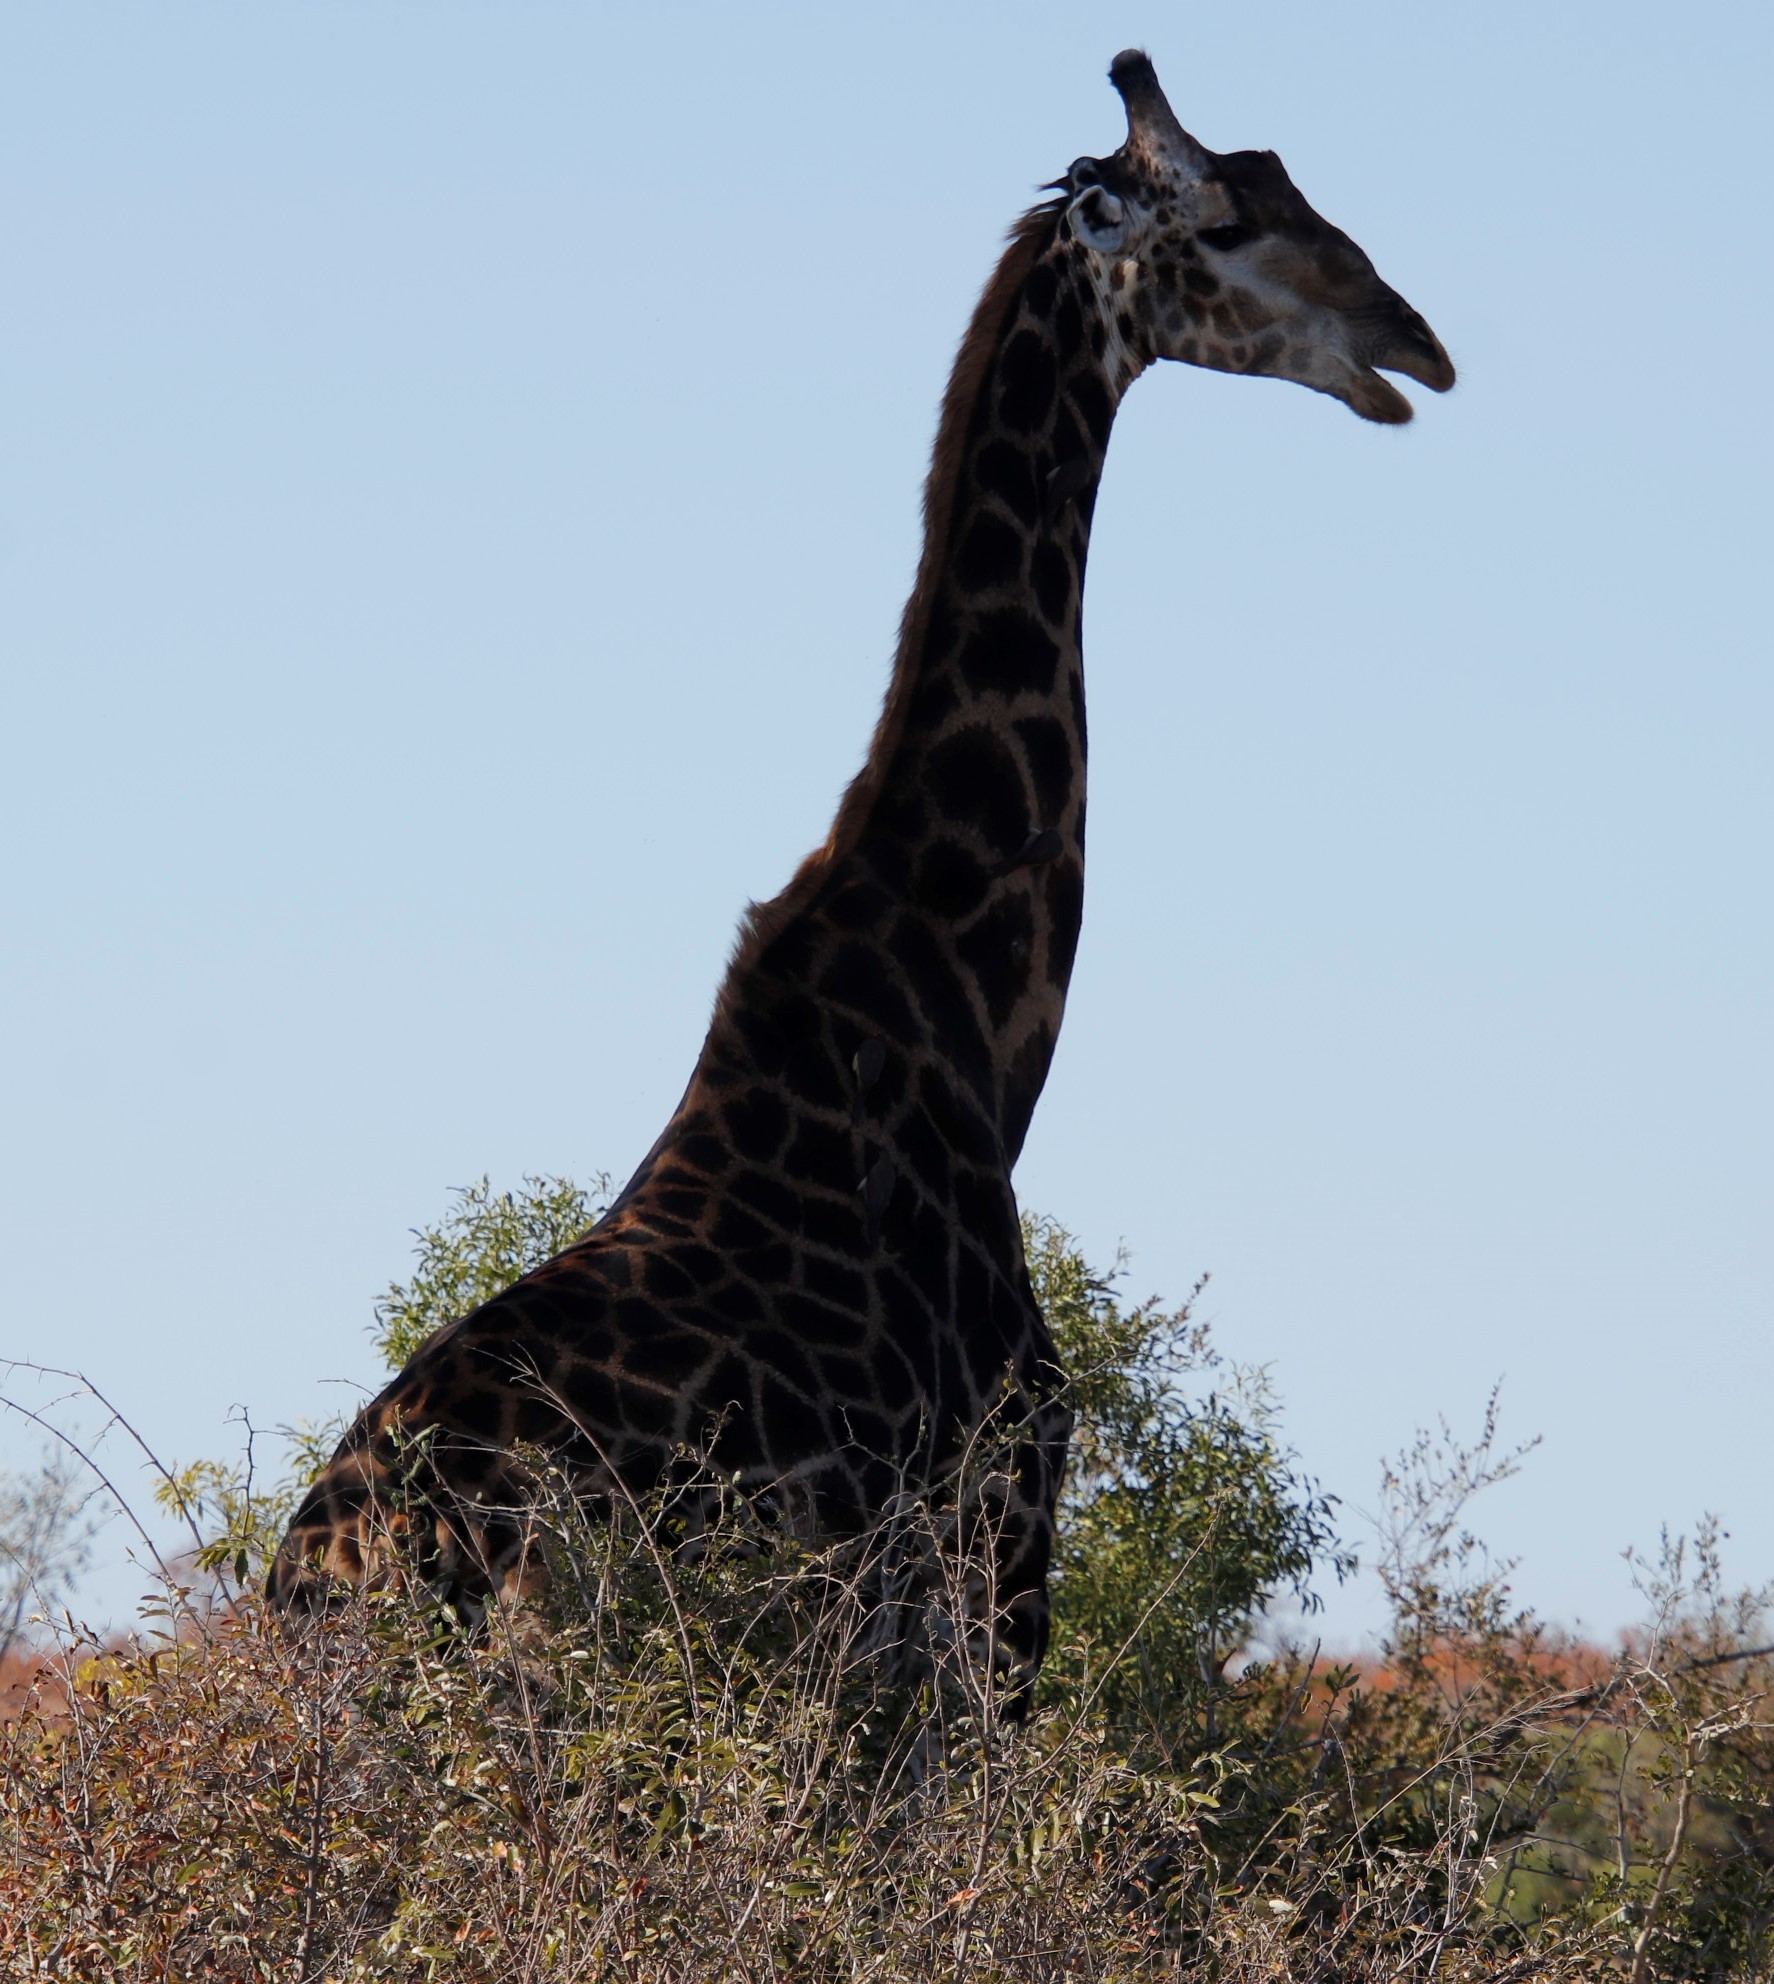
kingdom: Animalia
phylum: Chordata
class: Mammalia
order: Artiodactyla
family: Giraffidae
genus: Giraffa
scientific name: Giraffa giraffa
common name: Southern giraffe
